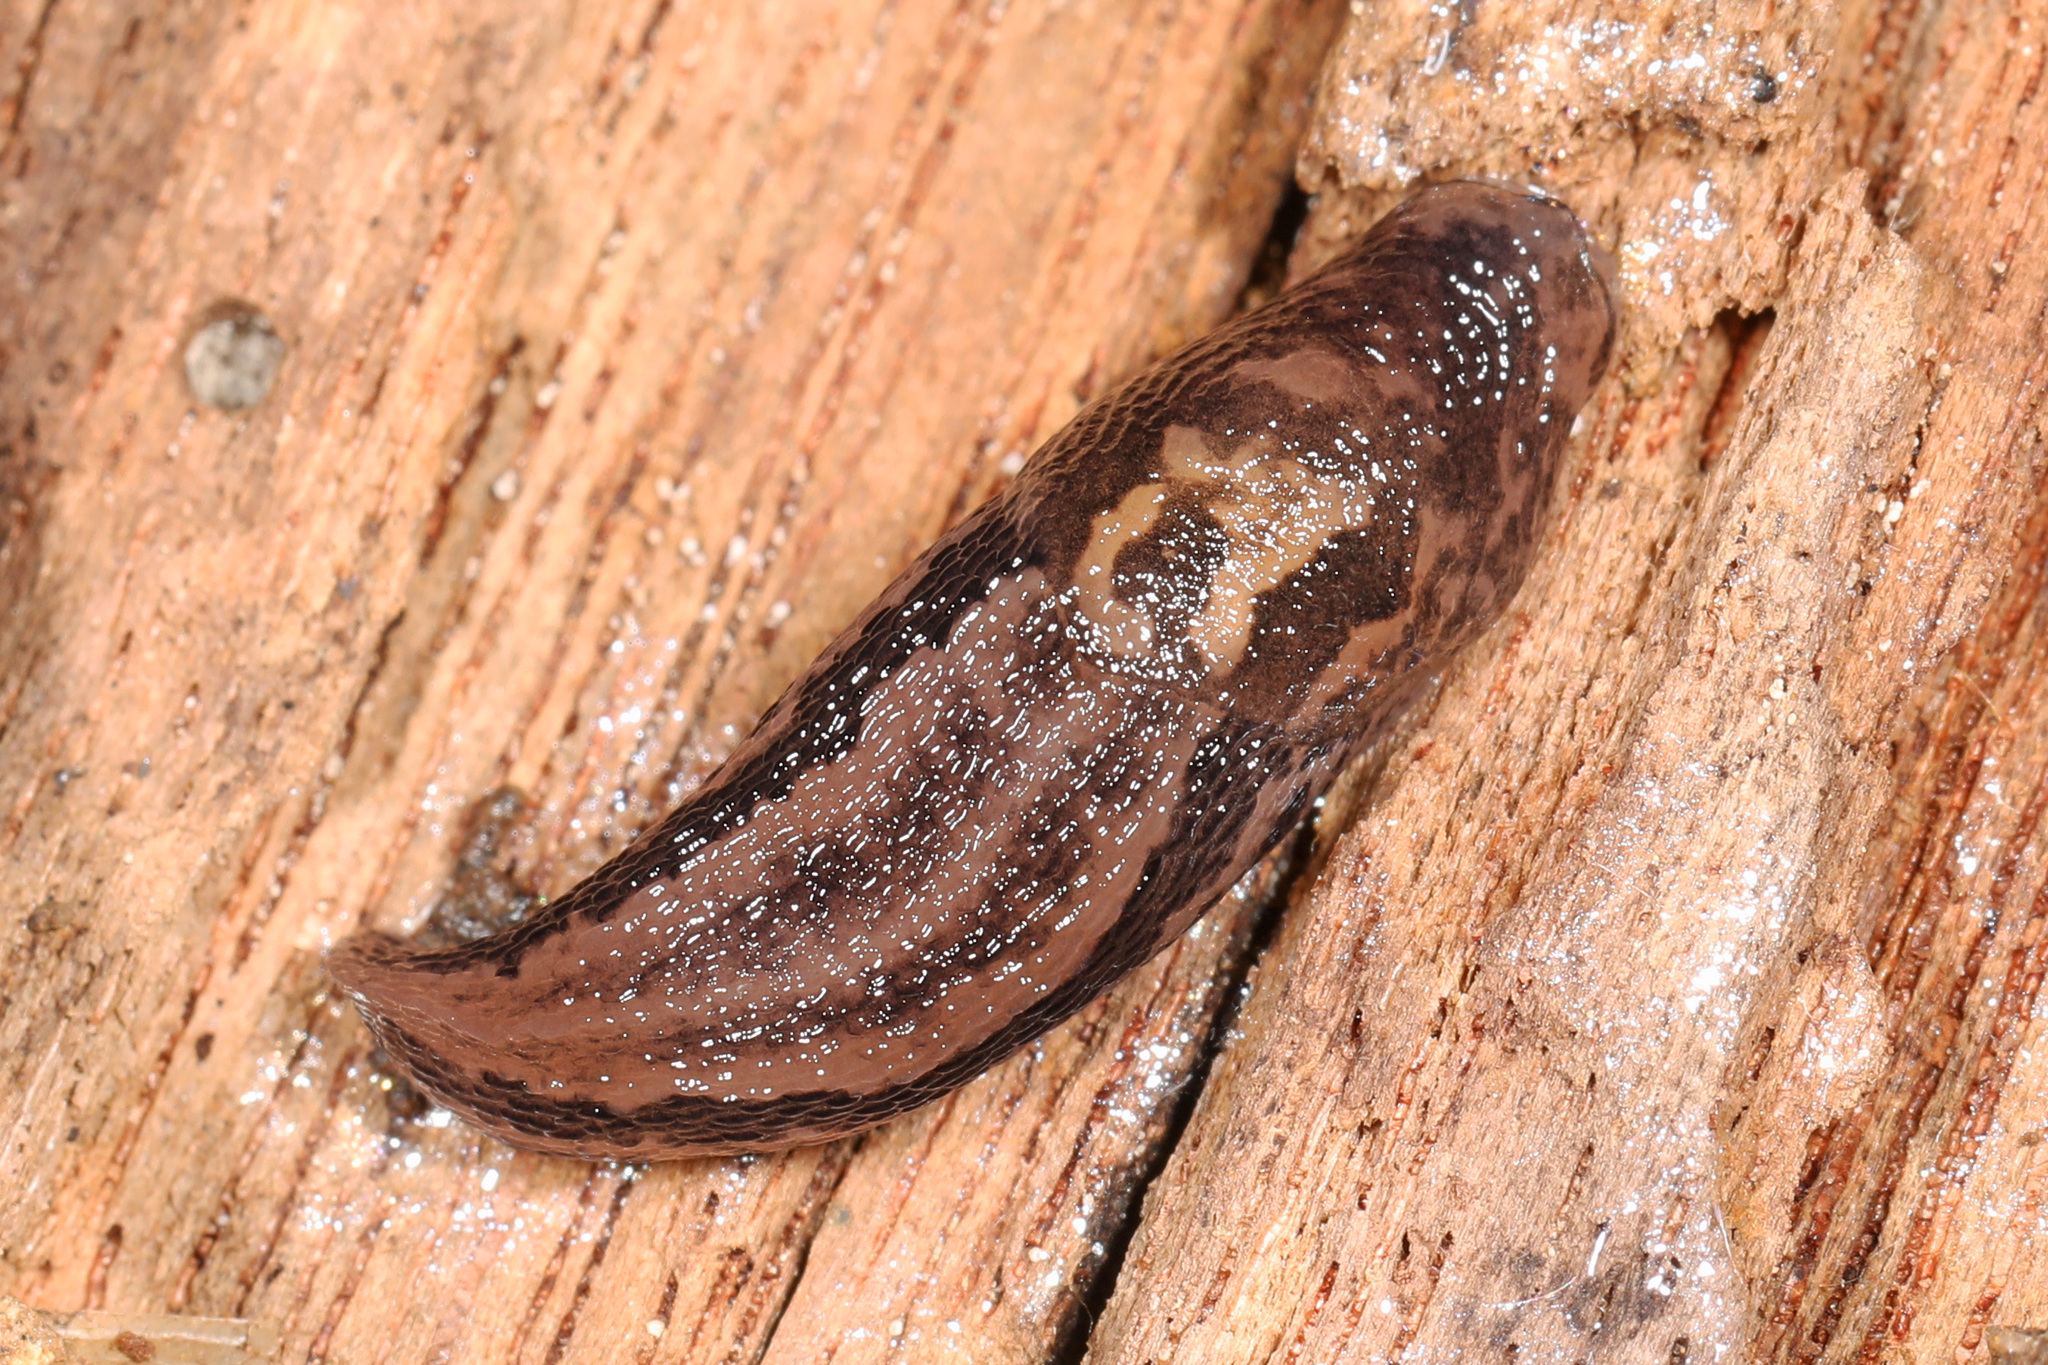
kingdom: Animalia
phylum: Mollusca
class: Gastropoda
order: Stylommatophora
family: Limacidae
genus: Limax
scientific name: Limax maximus
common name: Great grey slug
